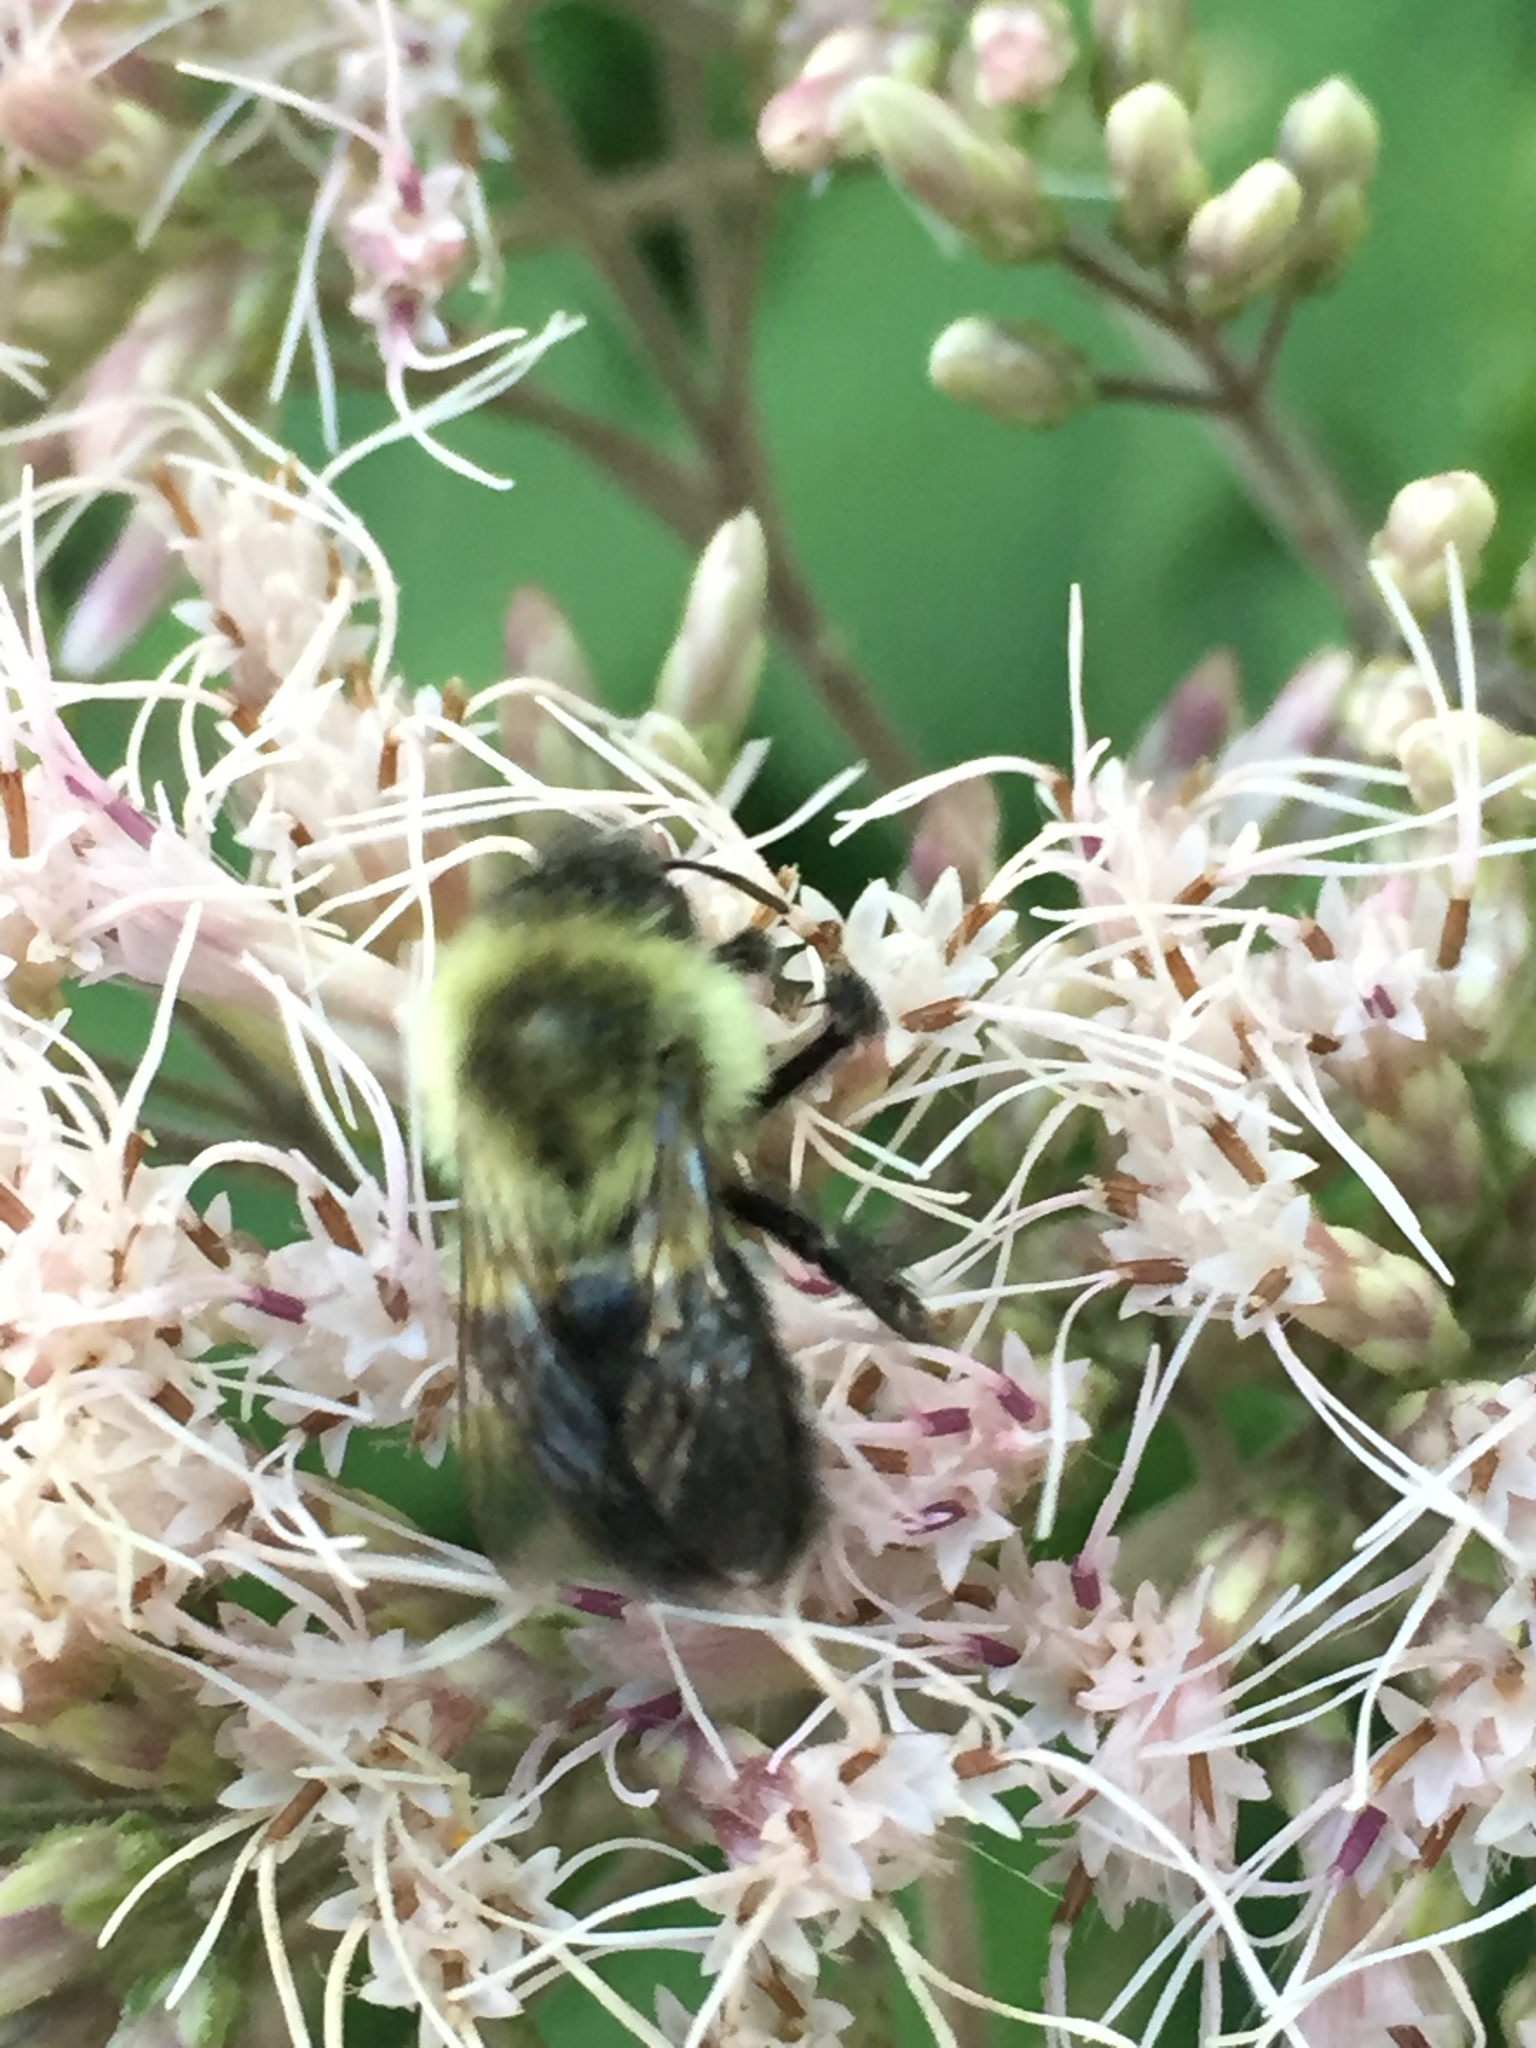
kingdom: Animalia
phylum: Arthropoda
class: Insecta
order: Hymenoptera
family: Apidae
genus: Bombus
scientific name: Bombus impatiens
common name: Common eastern bumble bee
